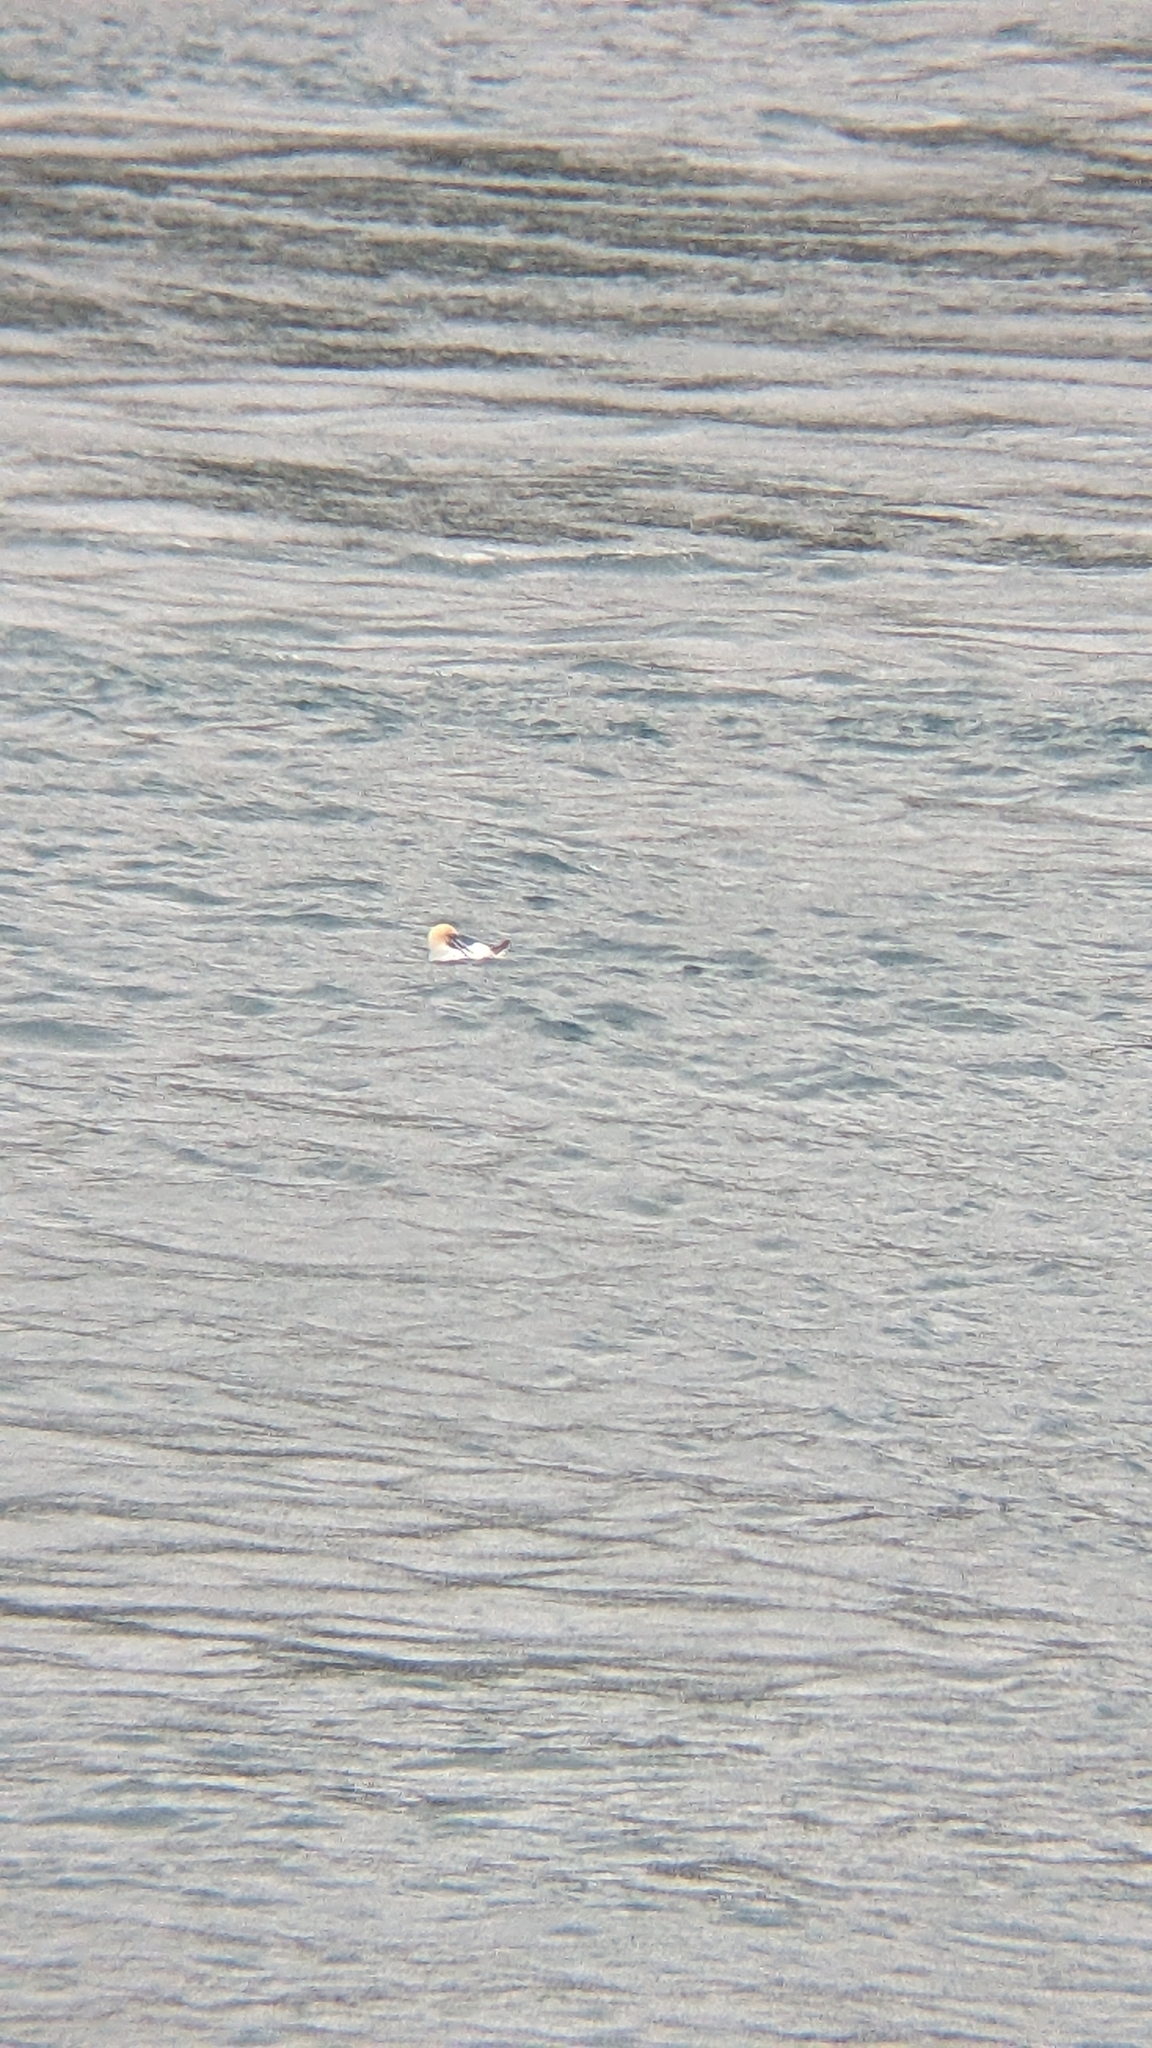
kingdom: Animalia
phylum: Chordata
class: Aves
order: Suliformes
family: Sulidae
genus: Morus
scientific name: Morus serrator
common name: Australasian gannet
